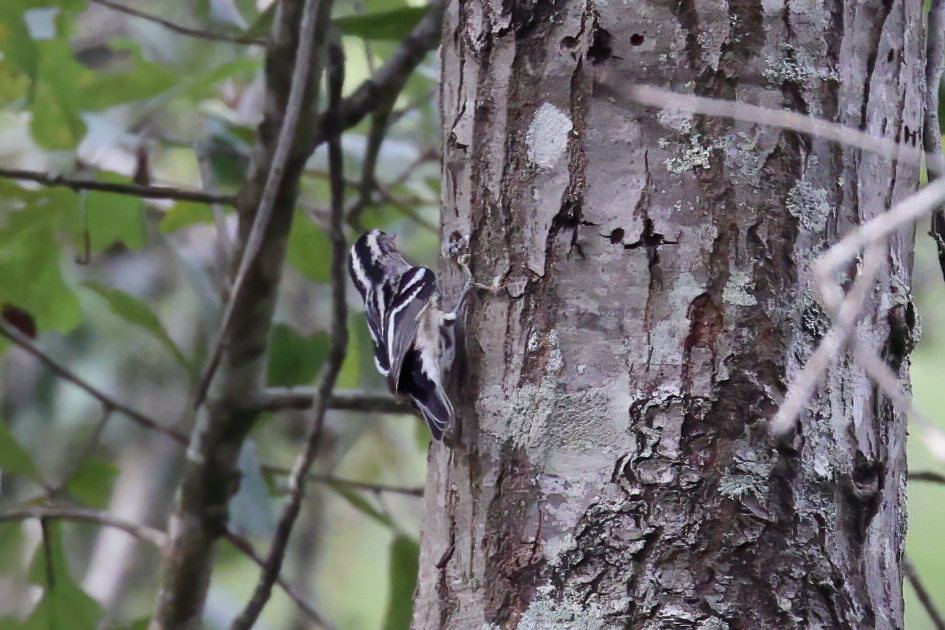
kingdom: Animalia
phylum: Chordata
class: Aves
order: Passeriformes
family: Parulidae
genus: Mniotilta
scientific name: Mniotilta varia
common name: Black-and-white warbler
